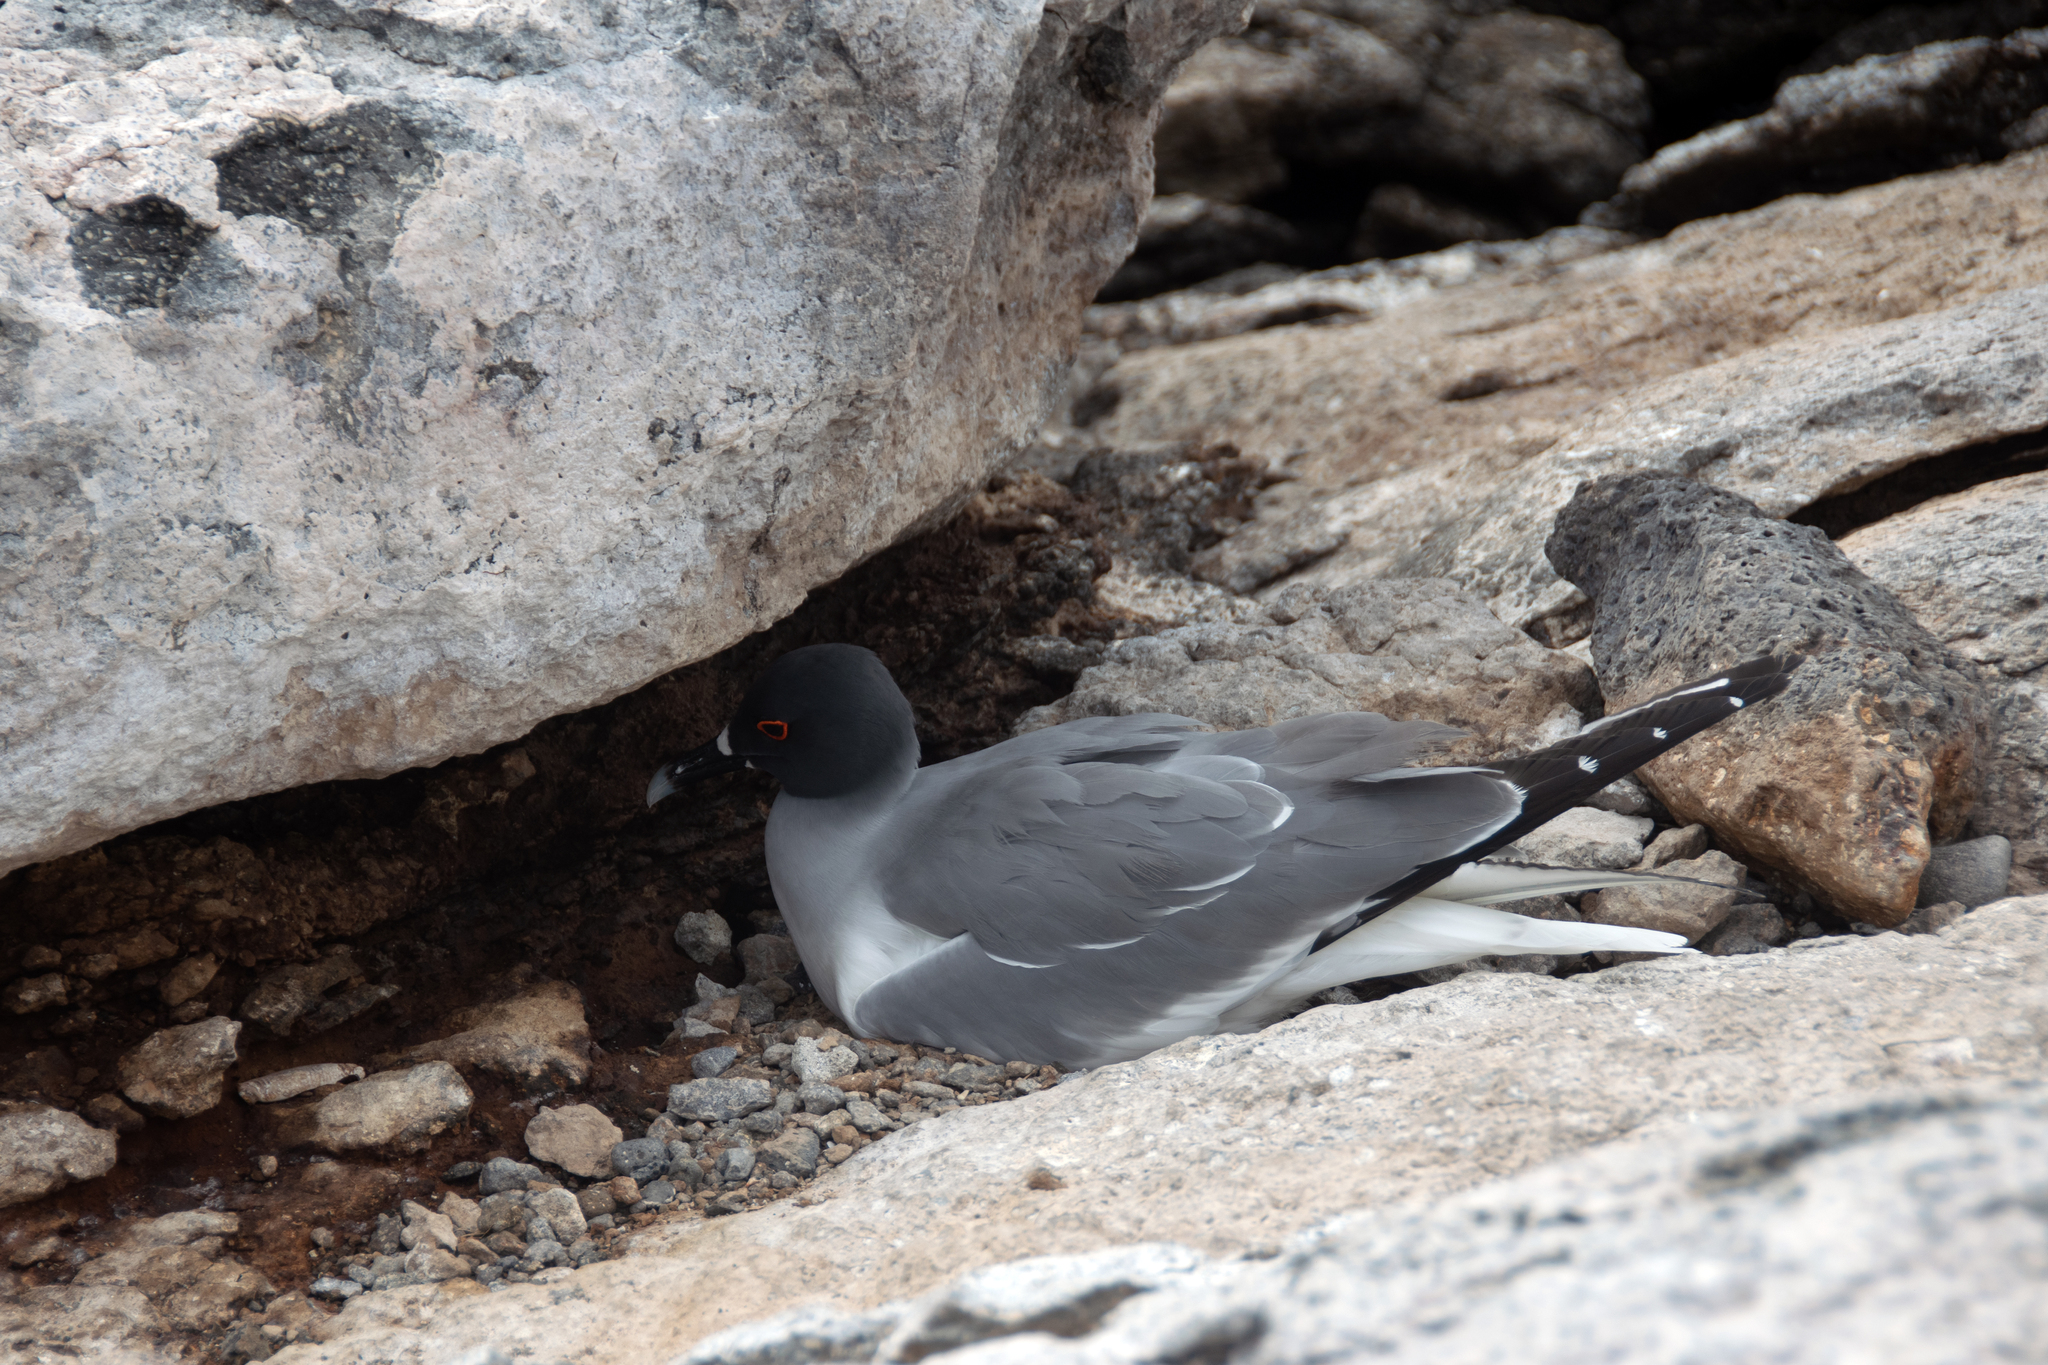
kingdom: Animalia
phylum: Chordata
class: Aves
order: Charadriiformes
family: Laridae
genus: Creagrus
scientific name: Creagrus furcatus
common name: Swallow-tailed gull
